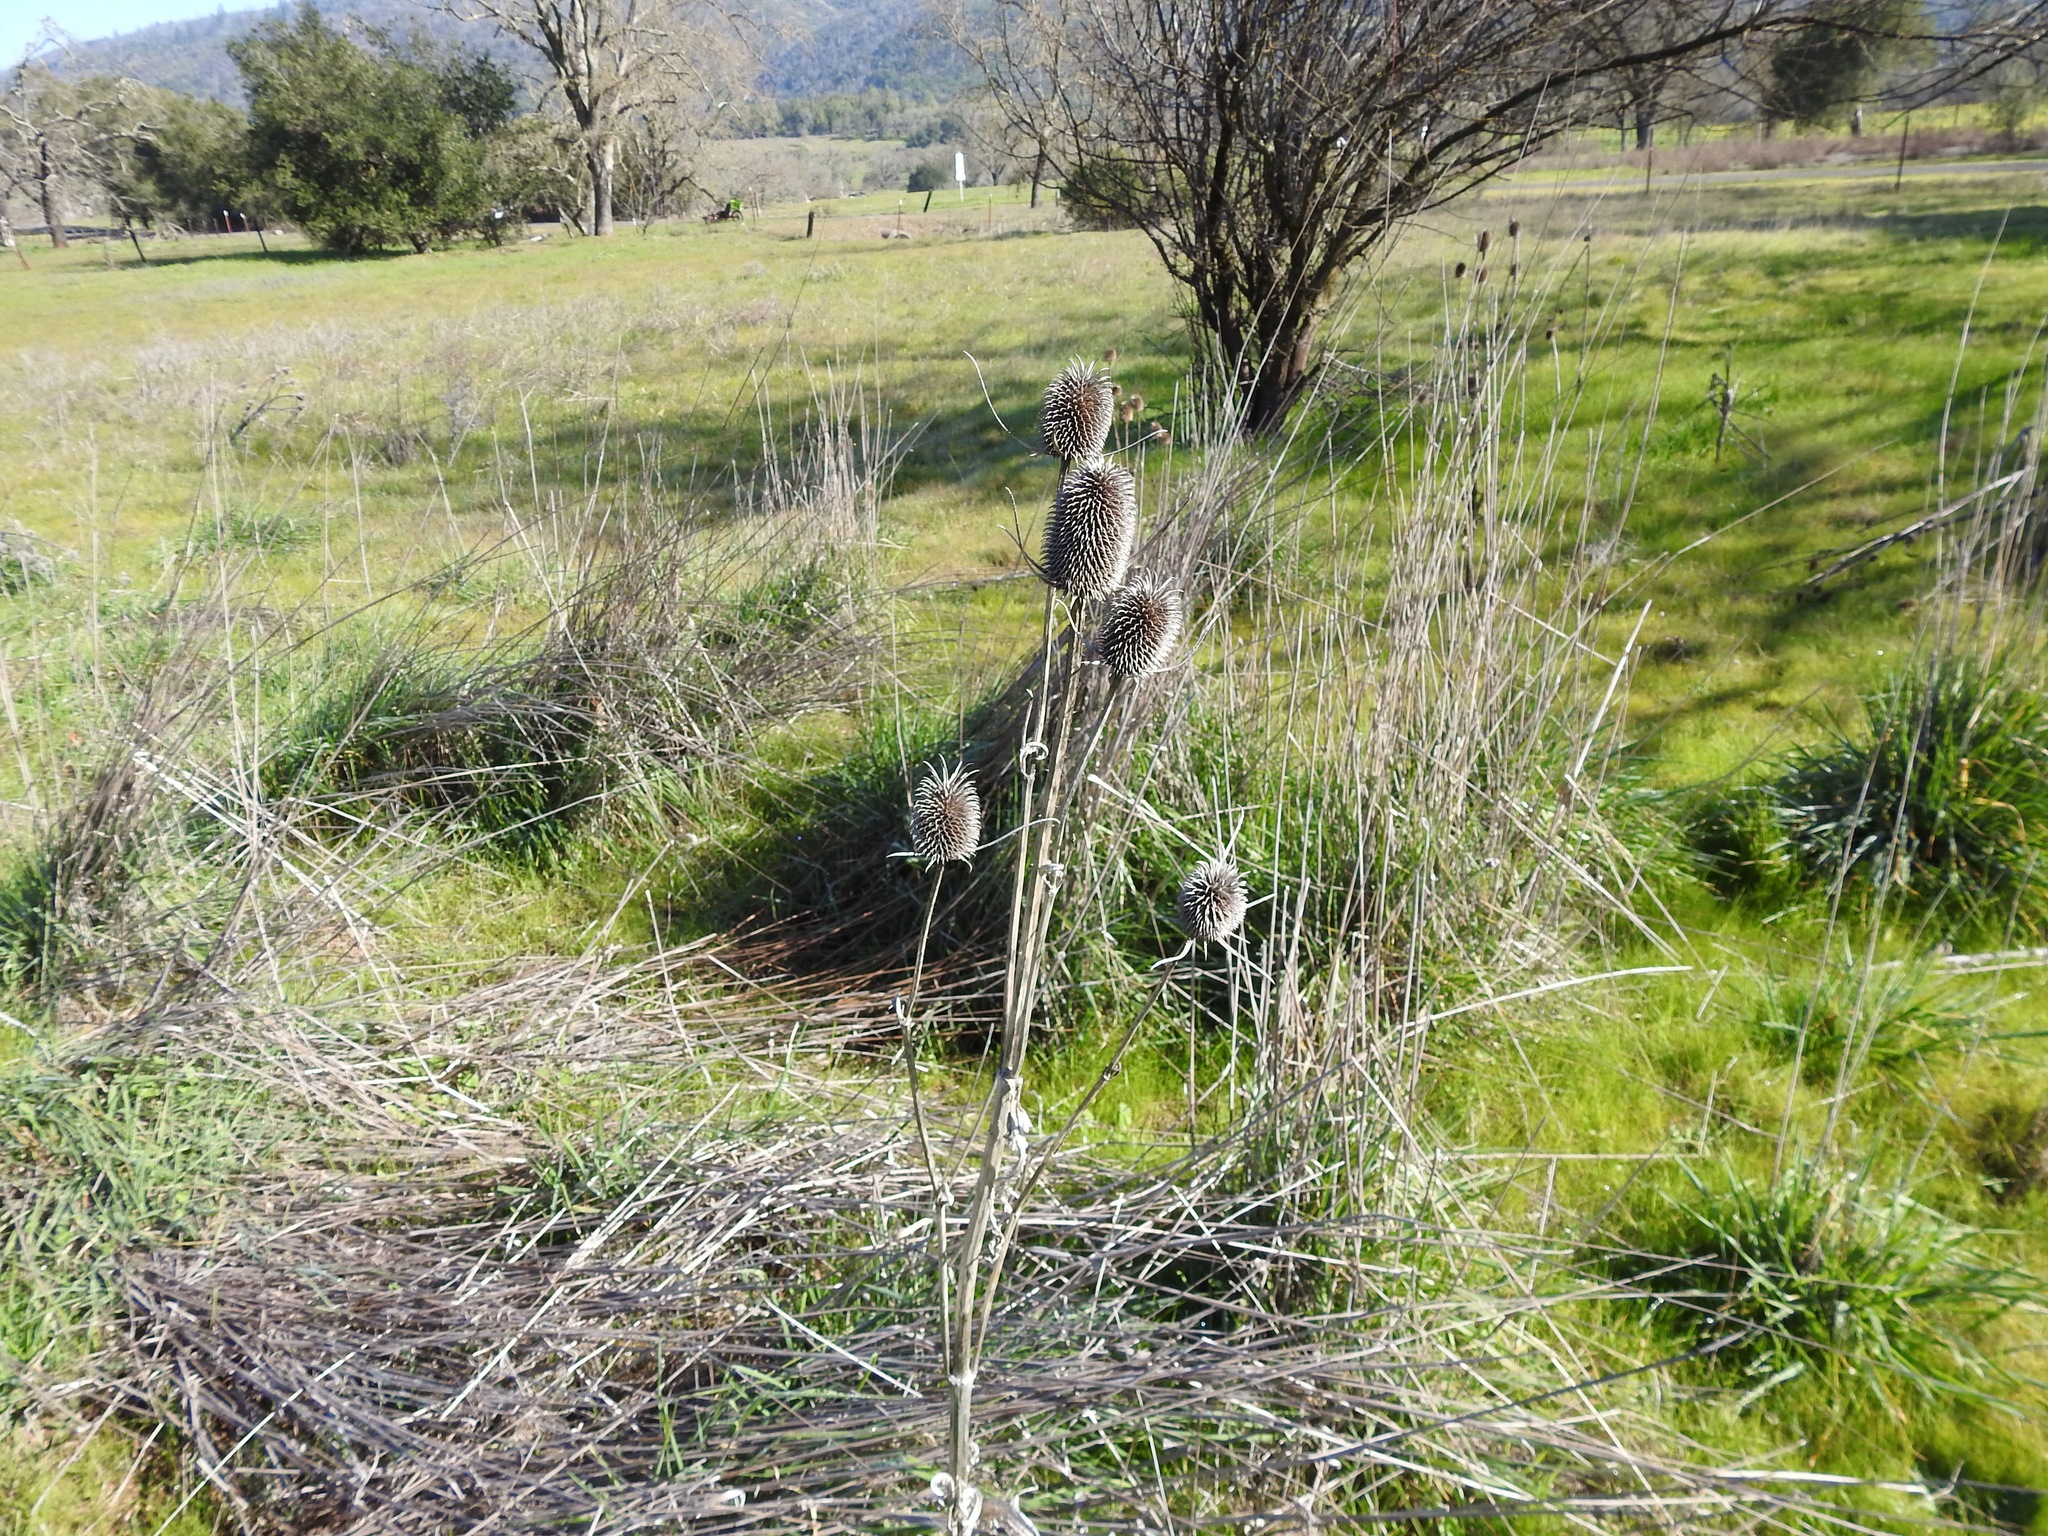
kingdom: Plantae
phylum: Tracheophyta
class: Magnoliopsida
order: Dipsacales
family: Caprifoliaceae
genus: Dipsacus
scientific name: Dipsacus sativus
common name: Fuller's teasel
